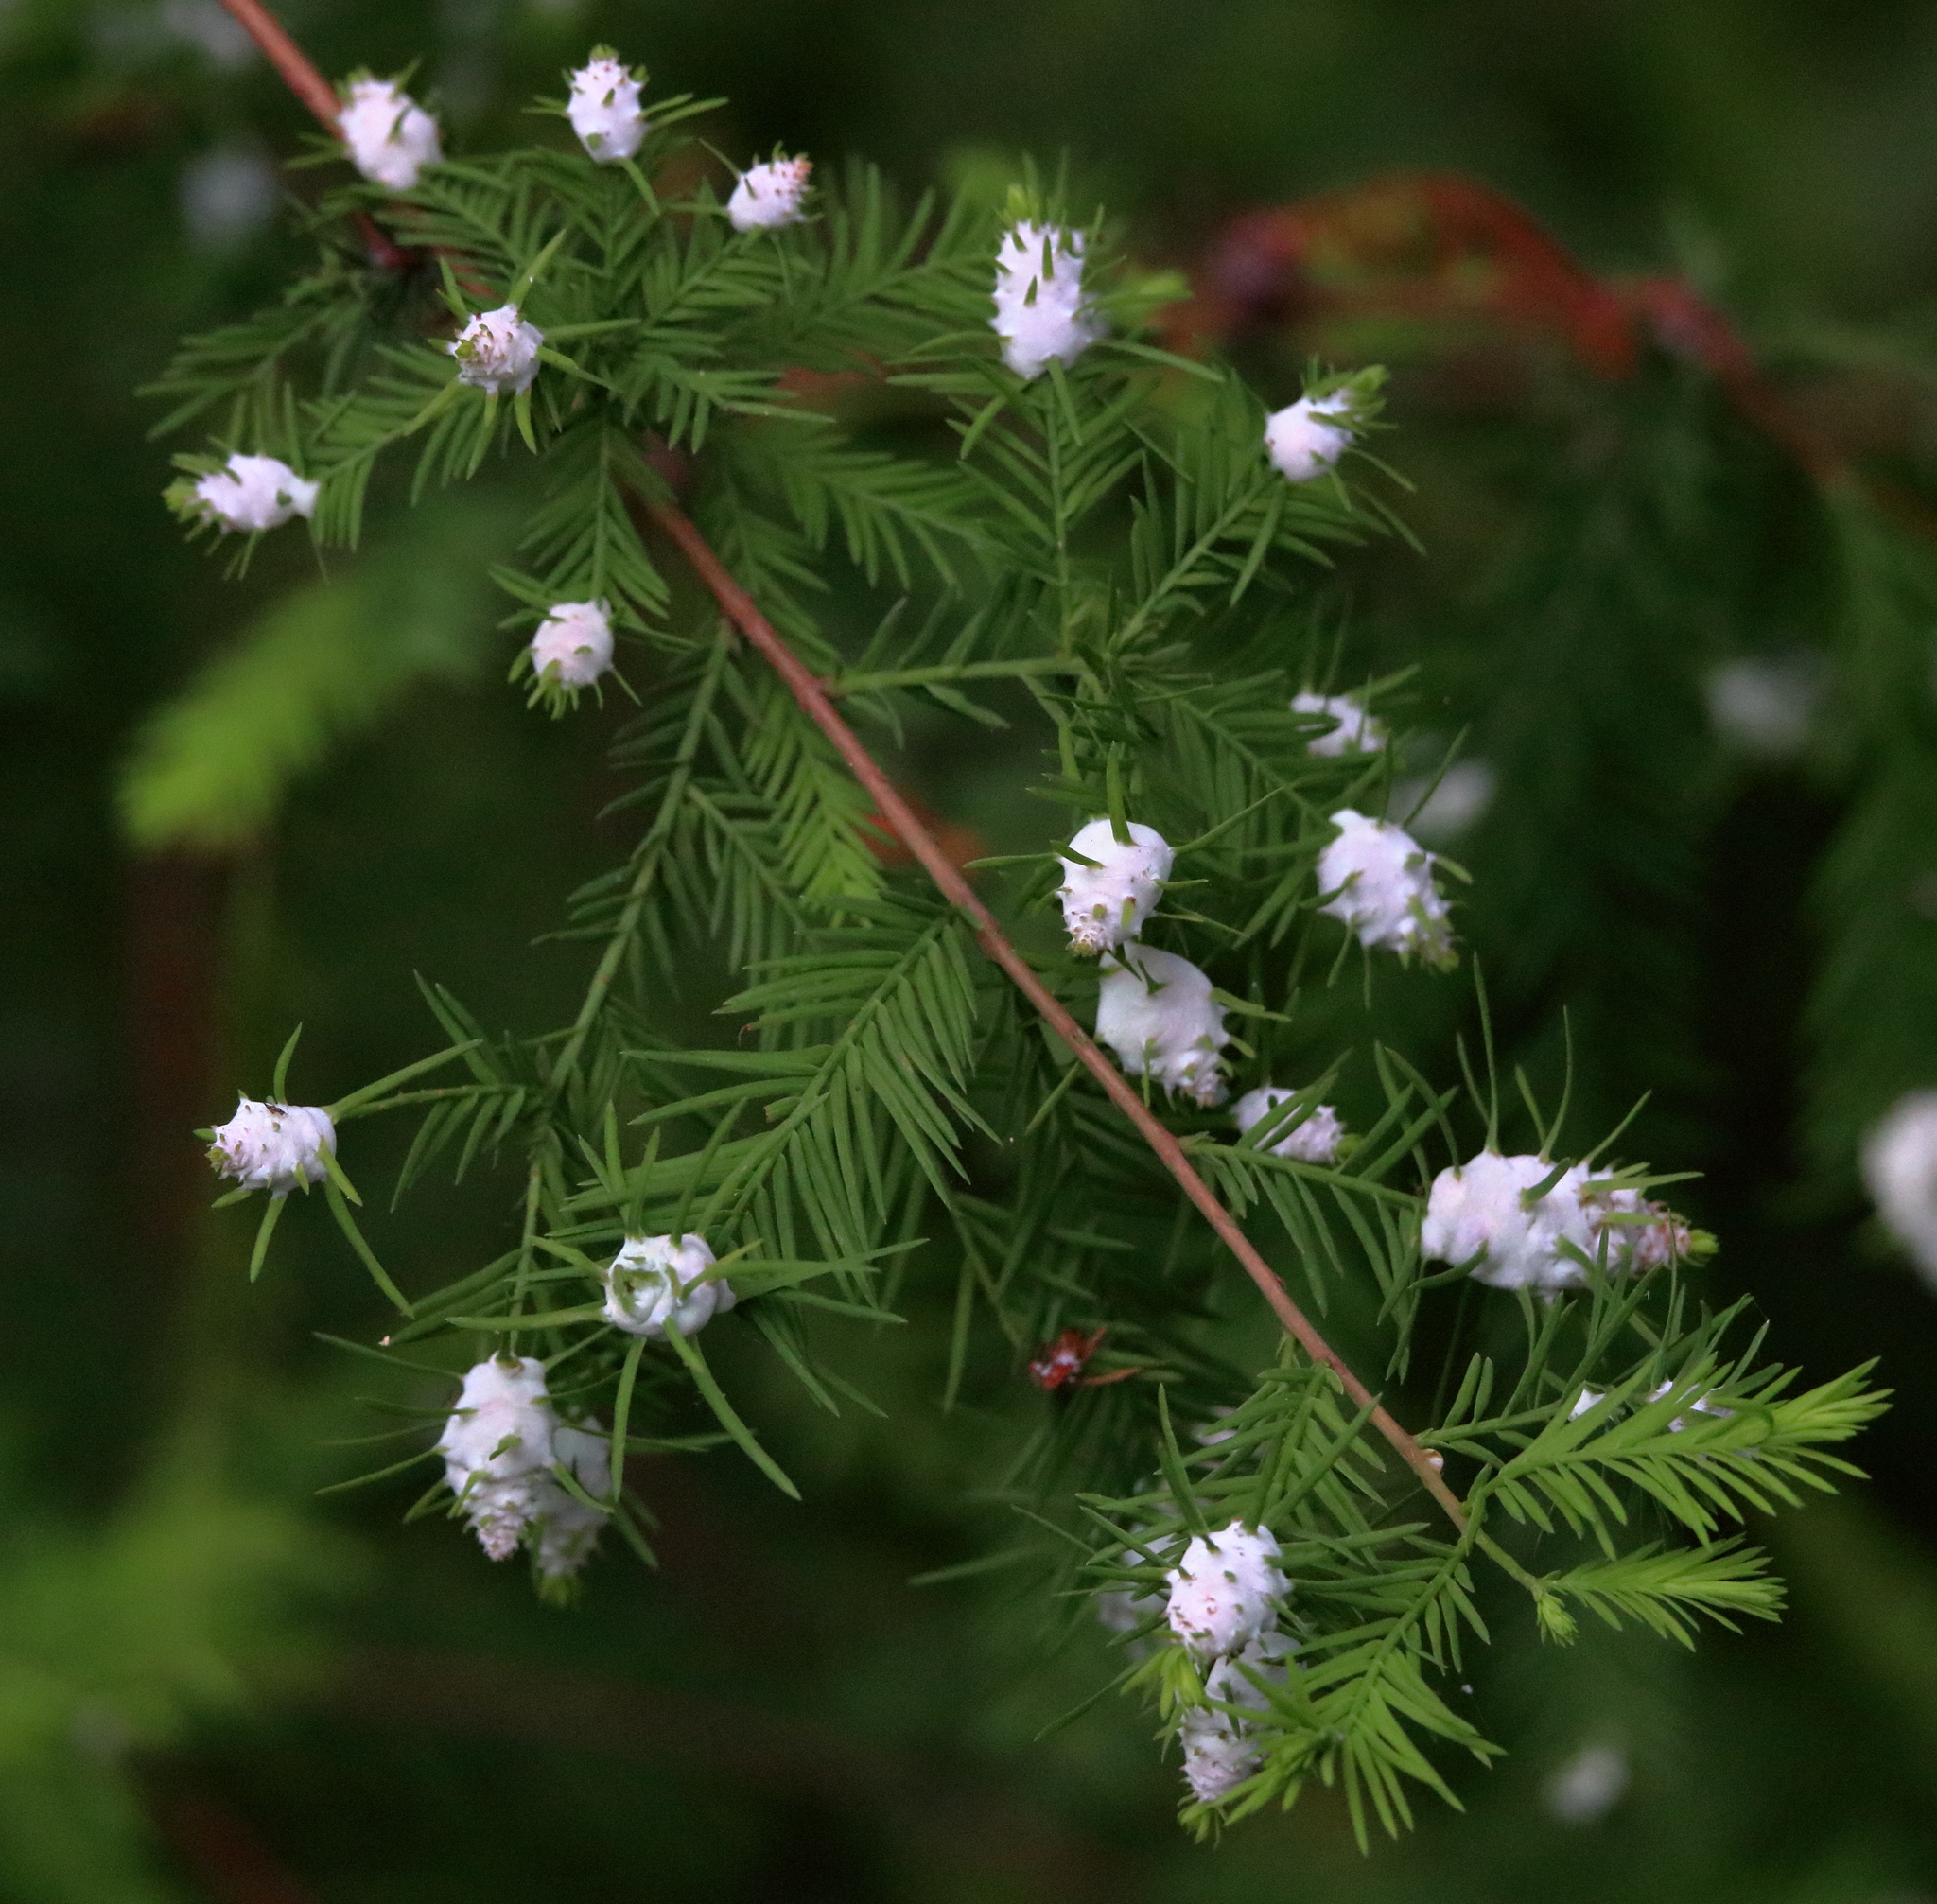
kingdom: Animalia
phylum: Arthropoda
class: Insecta
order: Diptera
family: Cecidomyiidae
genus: Taxodiomyia
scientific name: Taxodiomyia cupressiananassa
